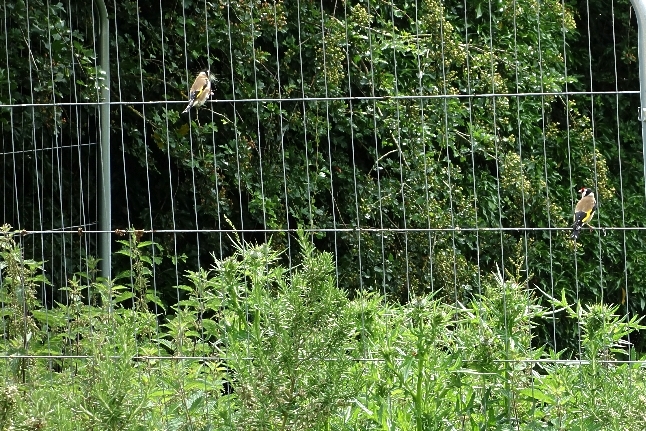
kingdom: Animalia
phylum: Chordata
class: Aves
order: Passeriformes
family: Fringillidae
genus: Carduelis
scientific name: Carduelis carduelis
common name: European goldfinch
